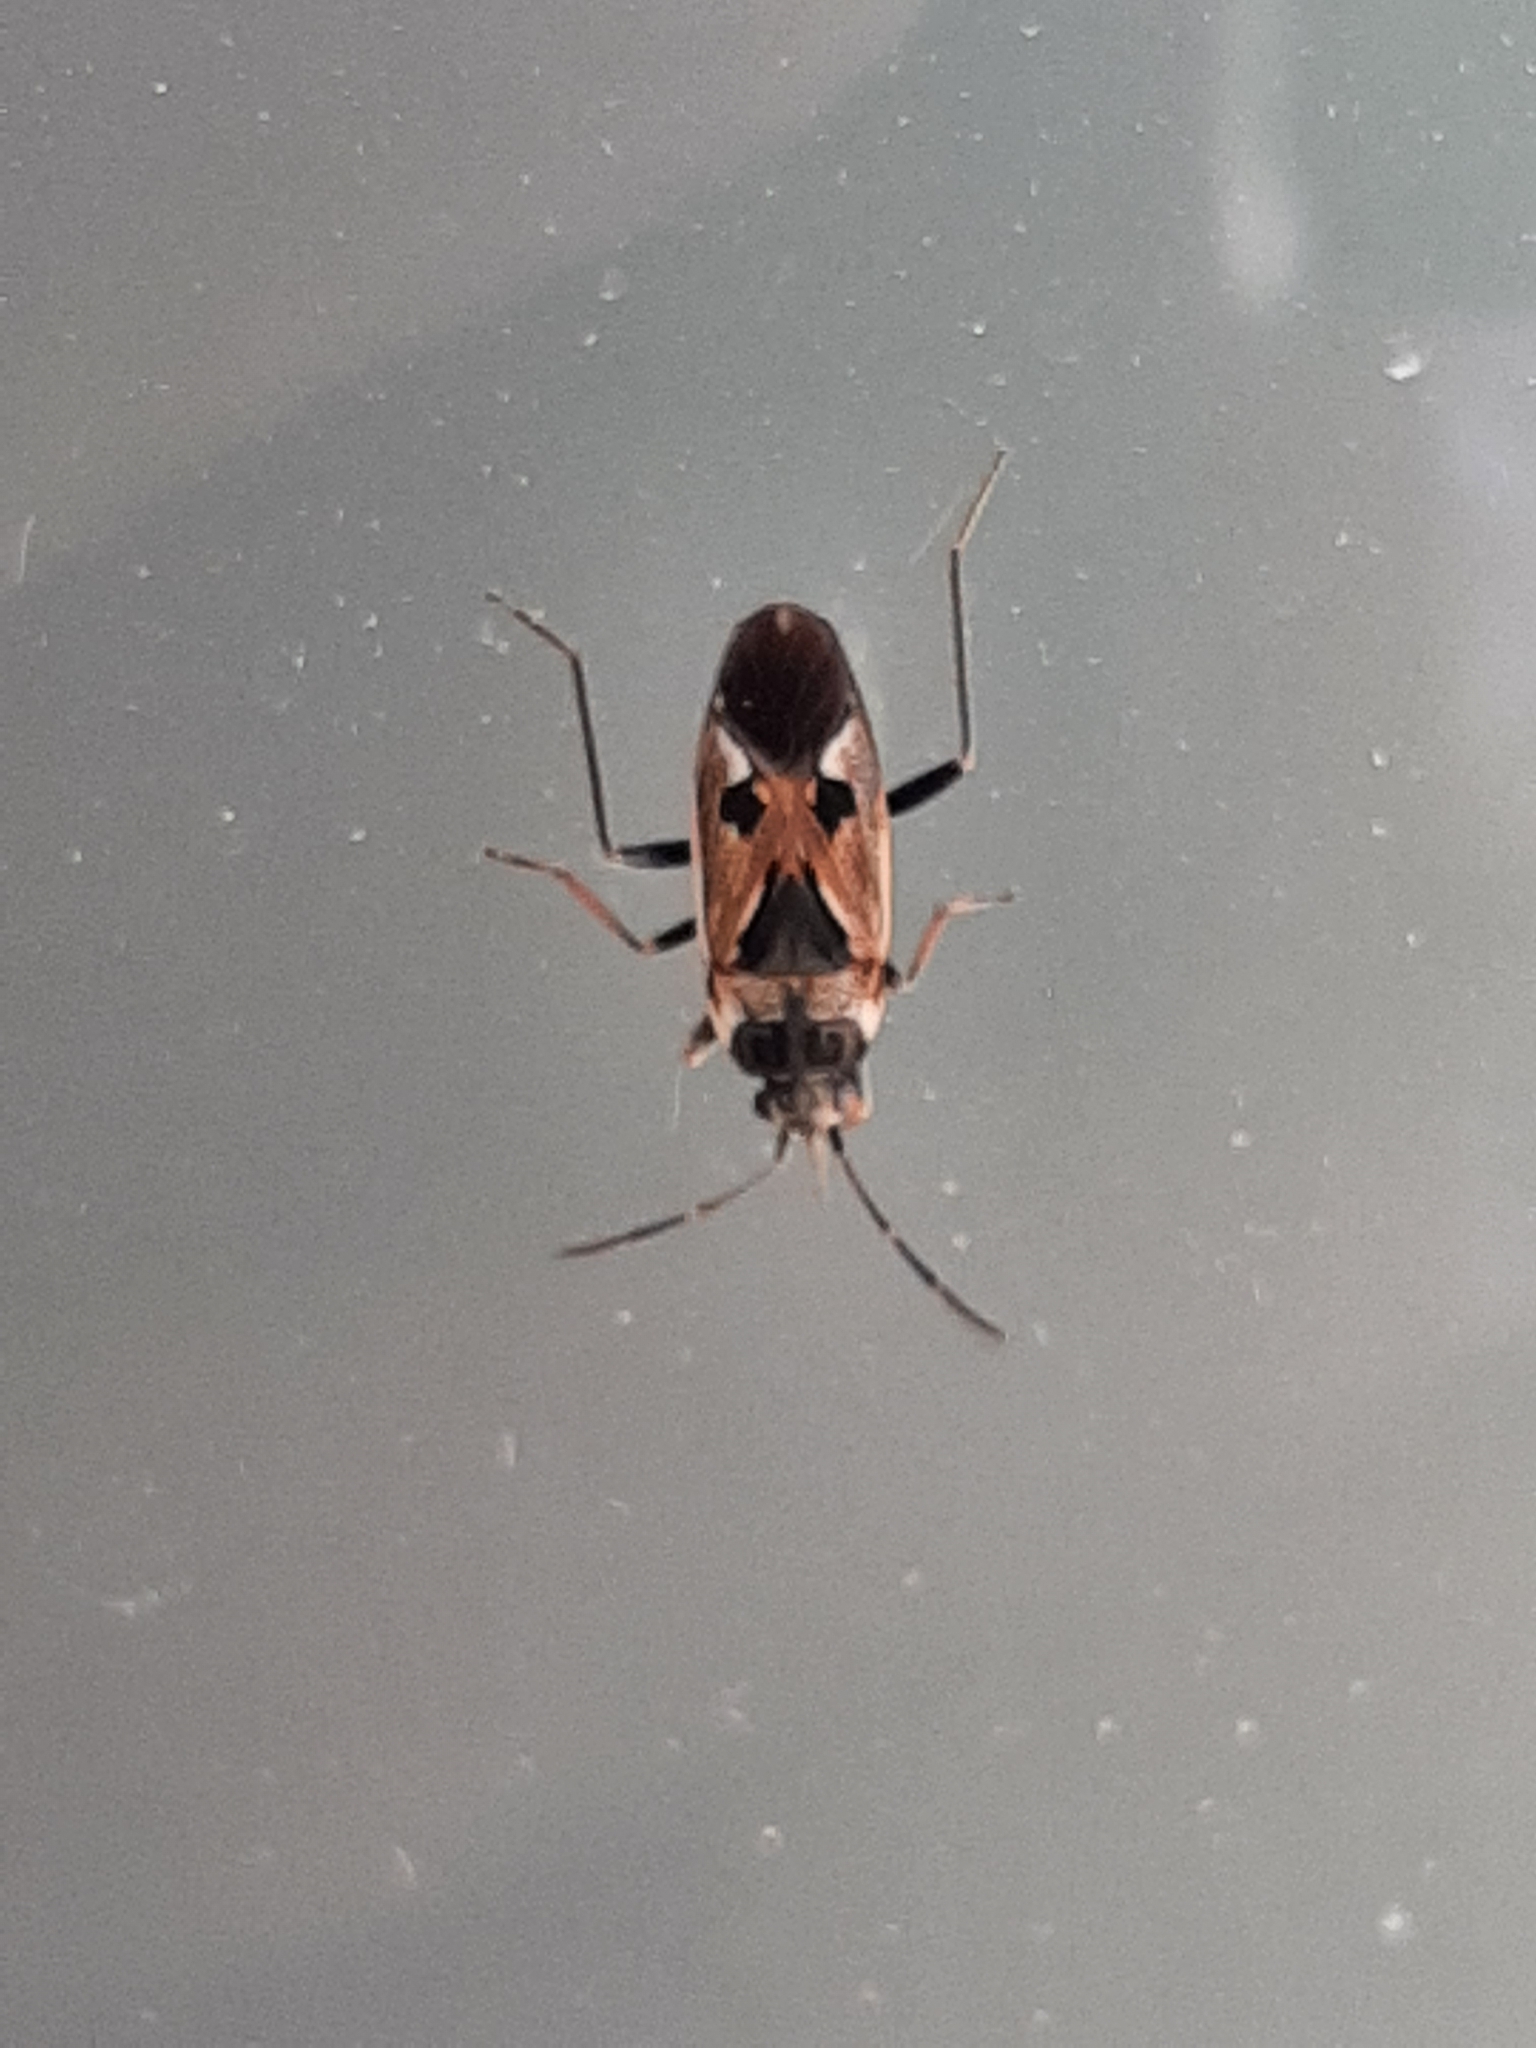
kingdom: Animalia
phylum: Arthropoda
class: Insecta
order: Hemiptera
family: Rhyparochromidae
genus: Rhyparochromus
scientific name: Rhyparochromus vulgaris
